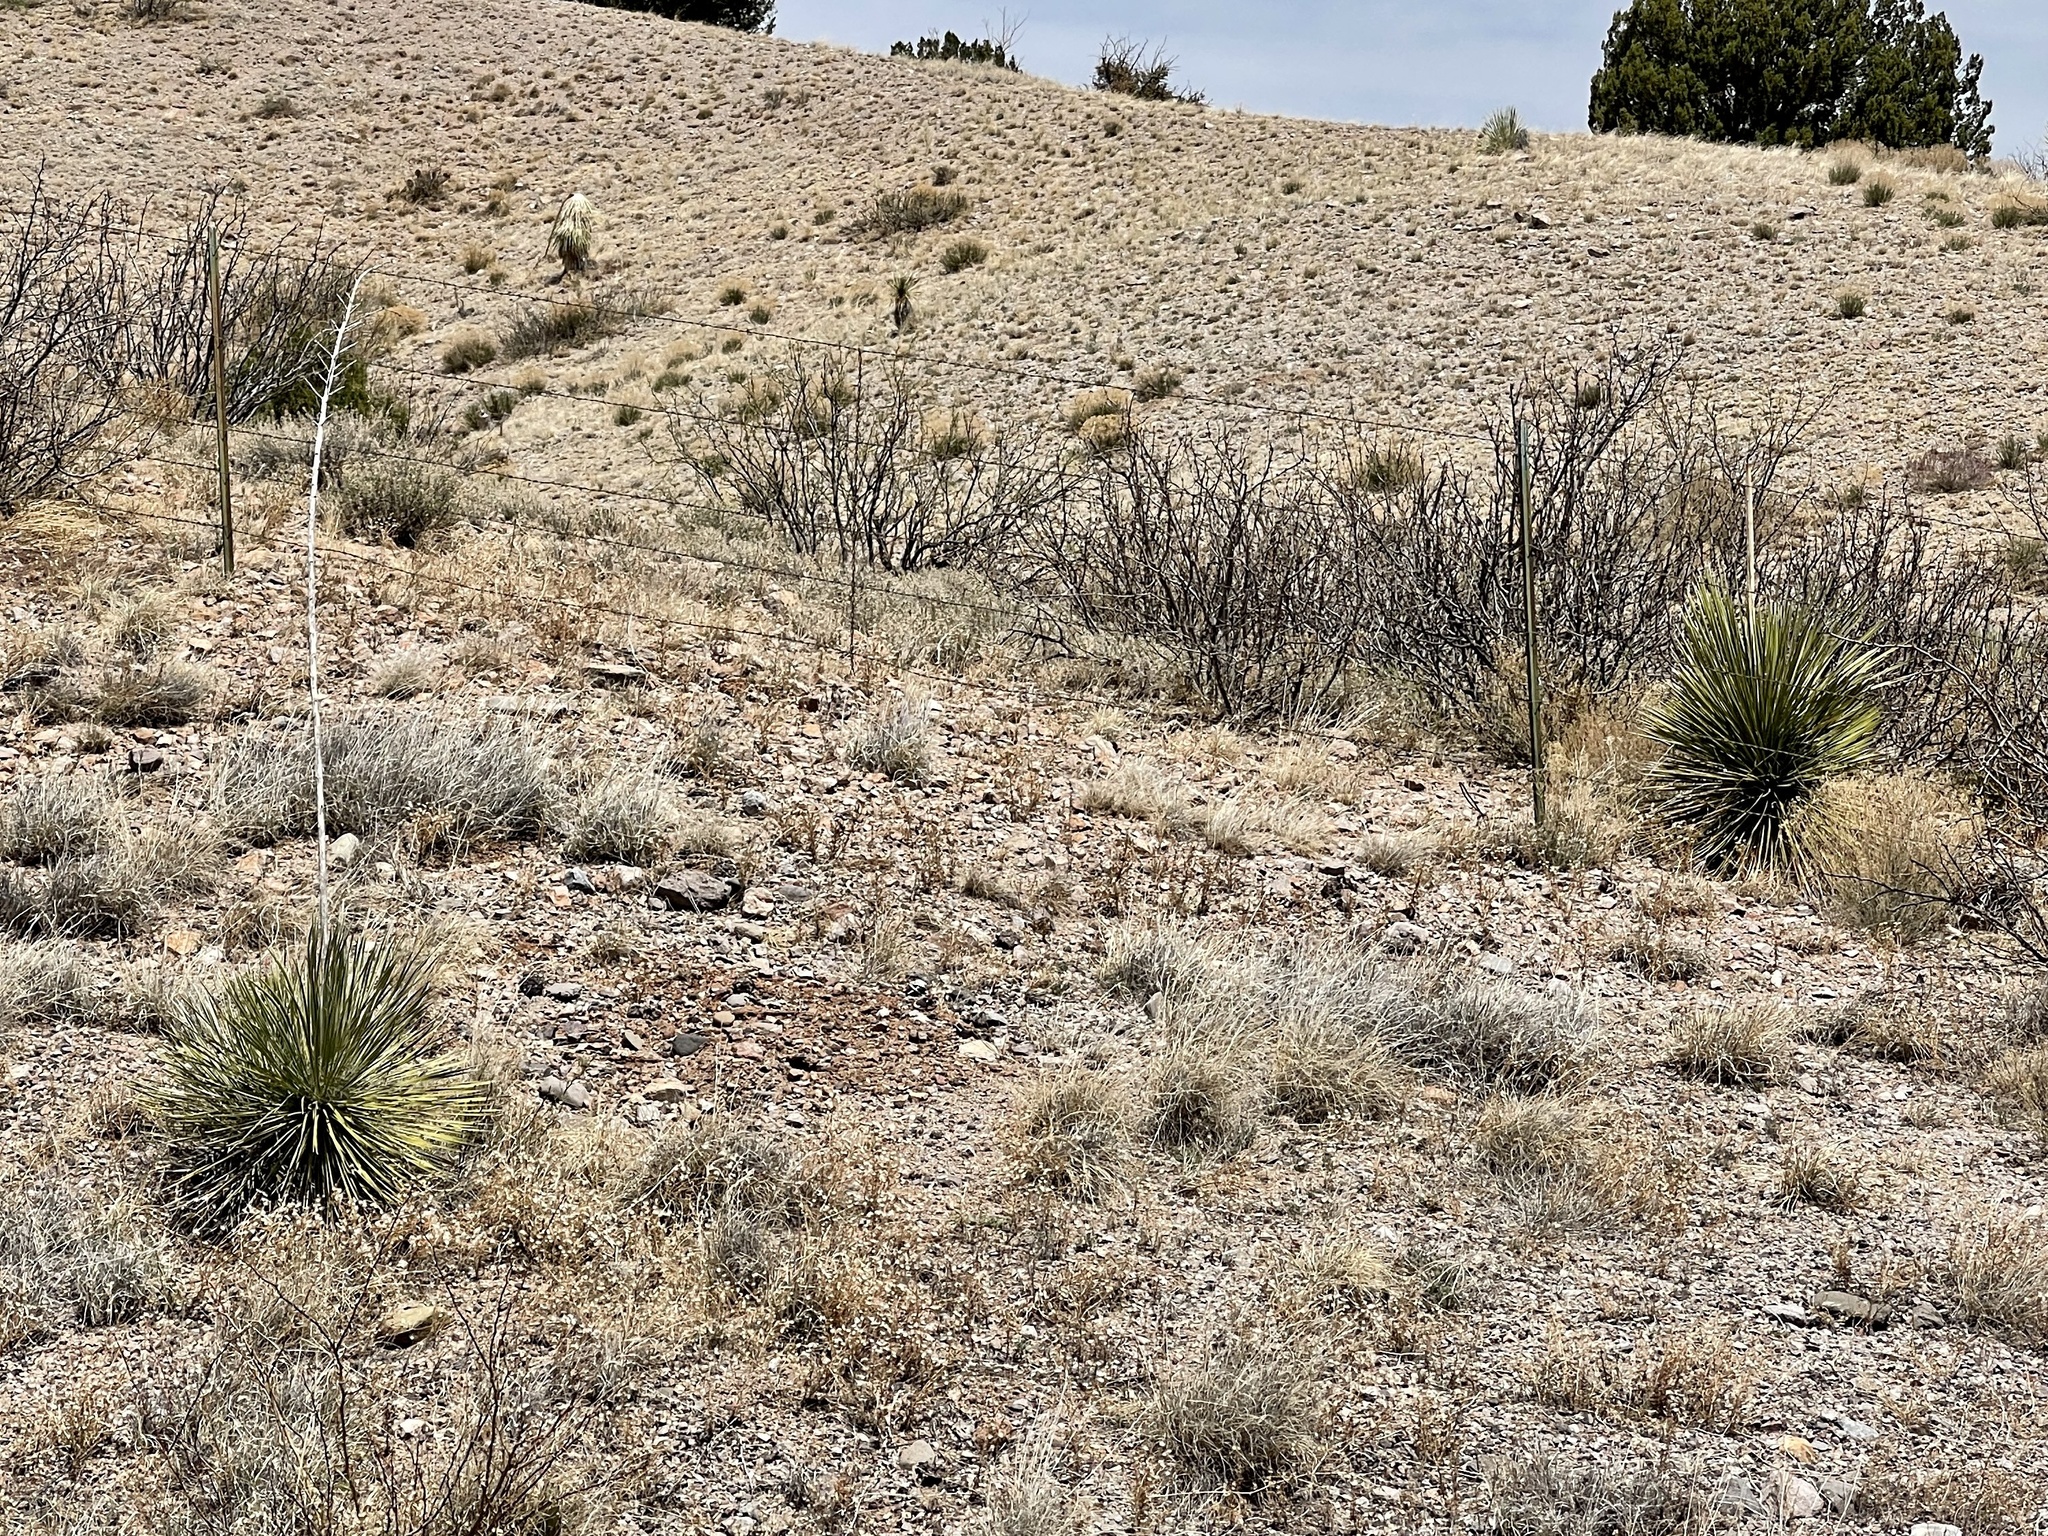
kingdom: Plantae
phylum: Tracheophyta
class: Liliopsida
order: Asparagales
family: Asparagaceae
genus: Yucca
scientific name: Yucca elata
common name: Palmella
